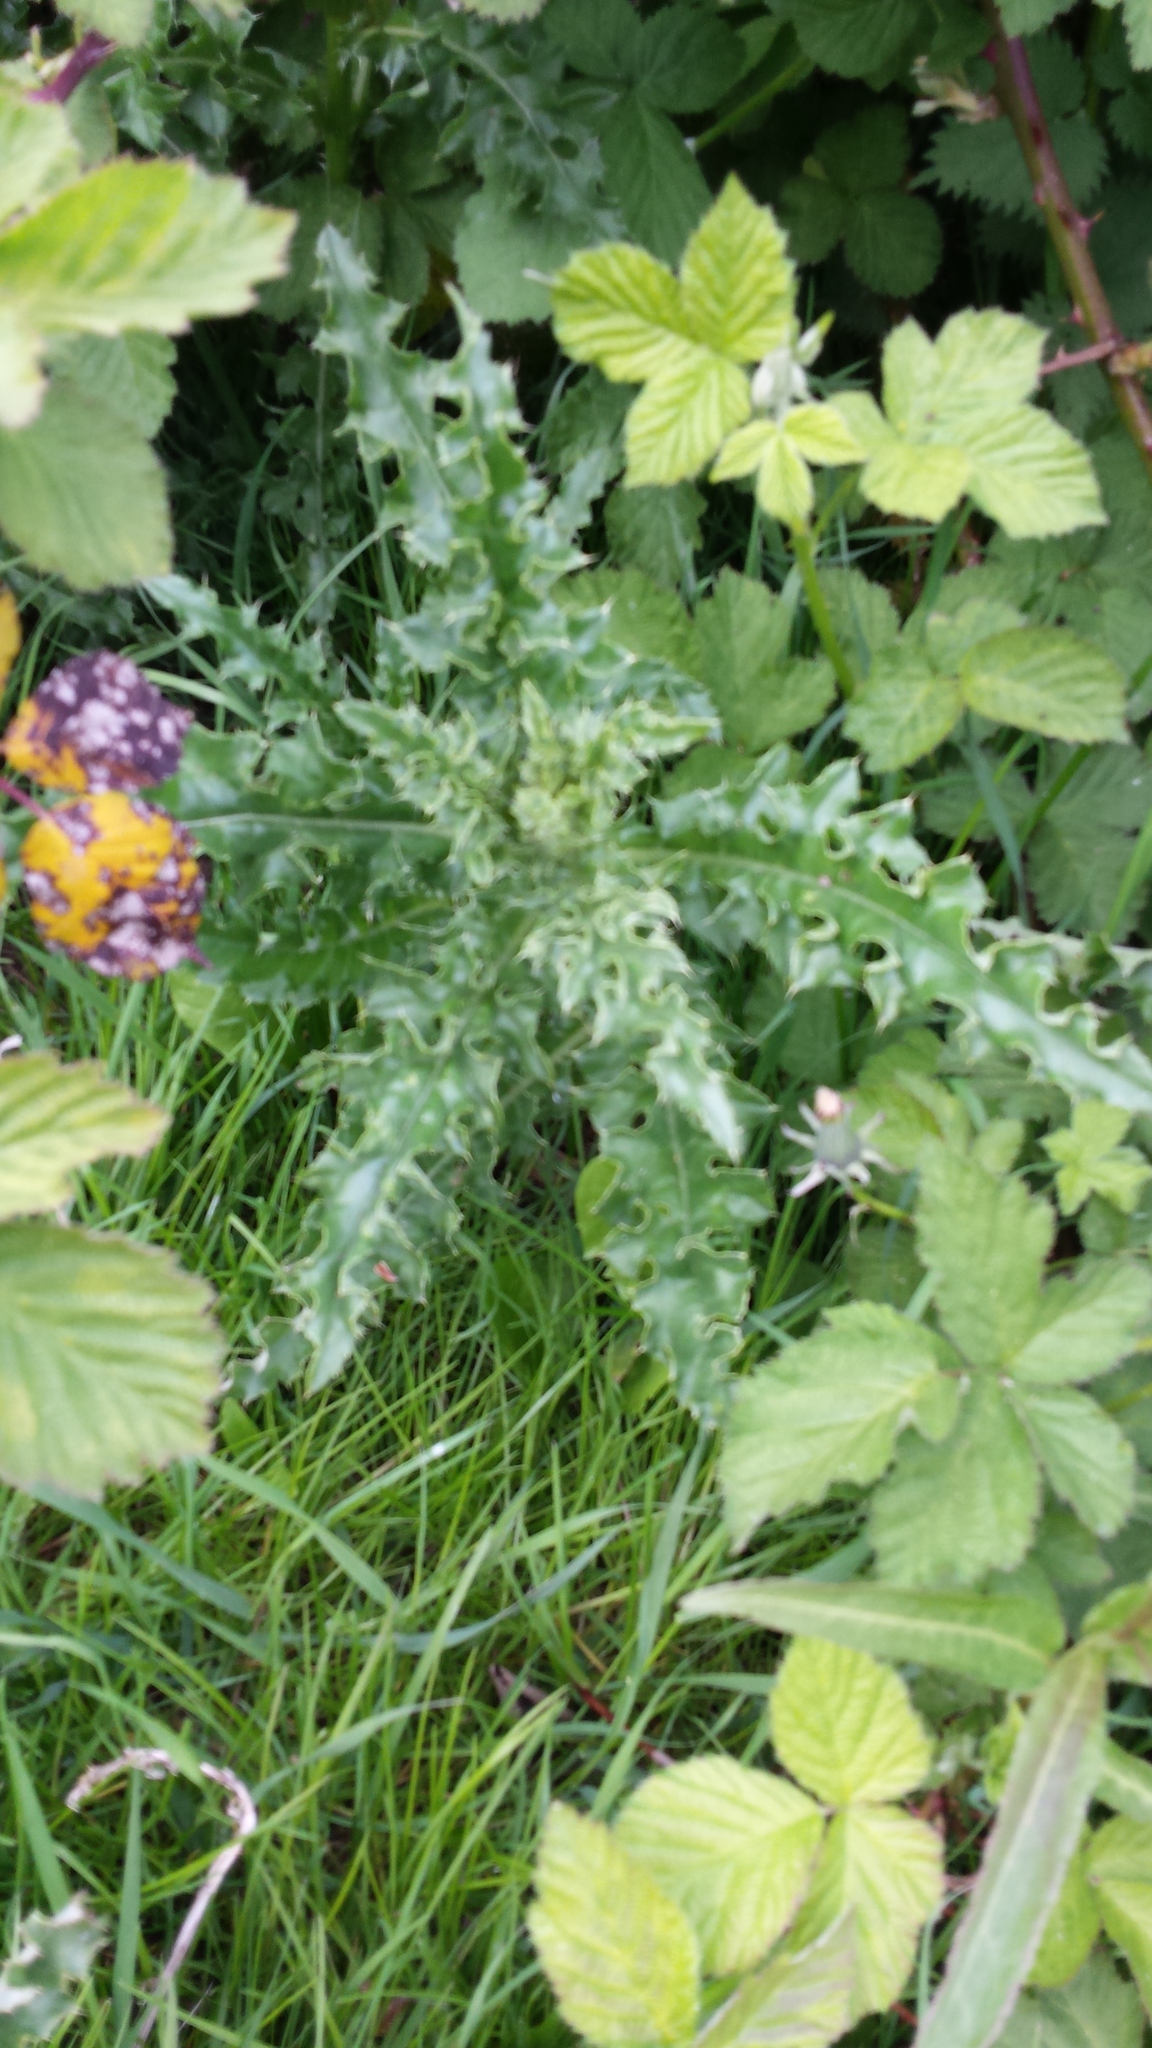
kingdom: Plantae
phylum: Tracheophyta
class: Magnoliopsida
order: Asterales
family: Asteraceae
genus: Cirsium
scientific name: Cirsium arvense
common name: Creeping thistle
